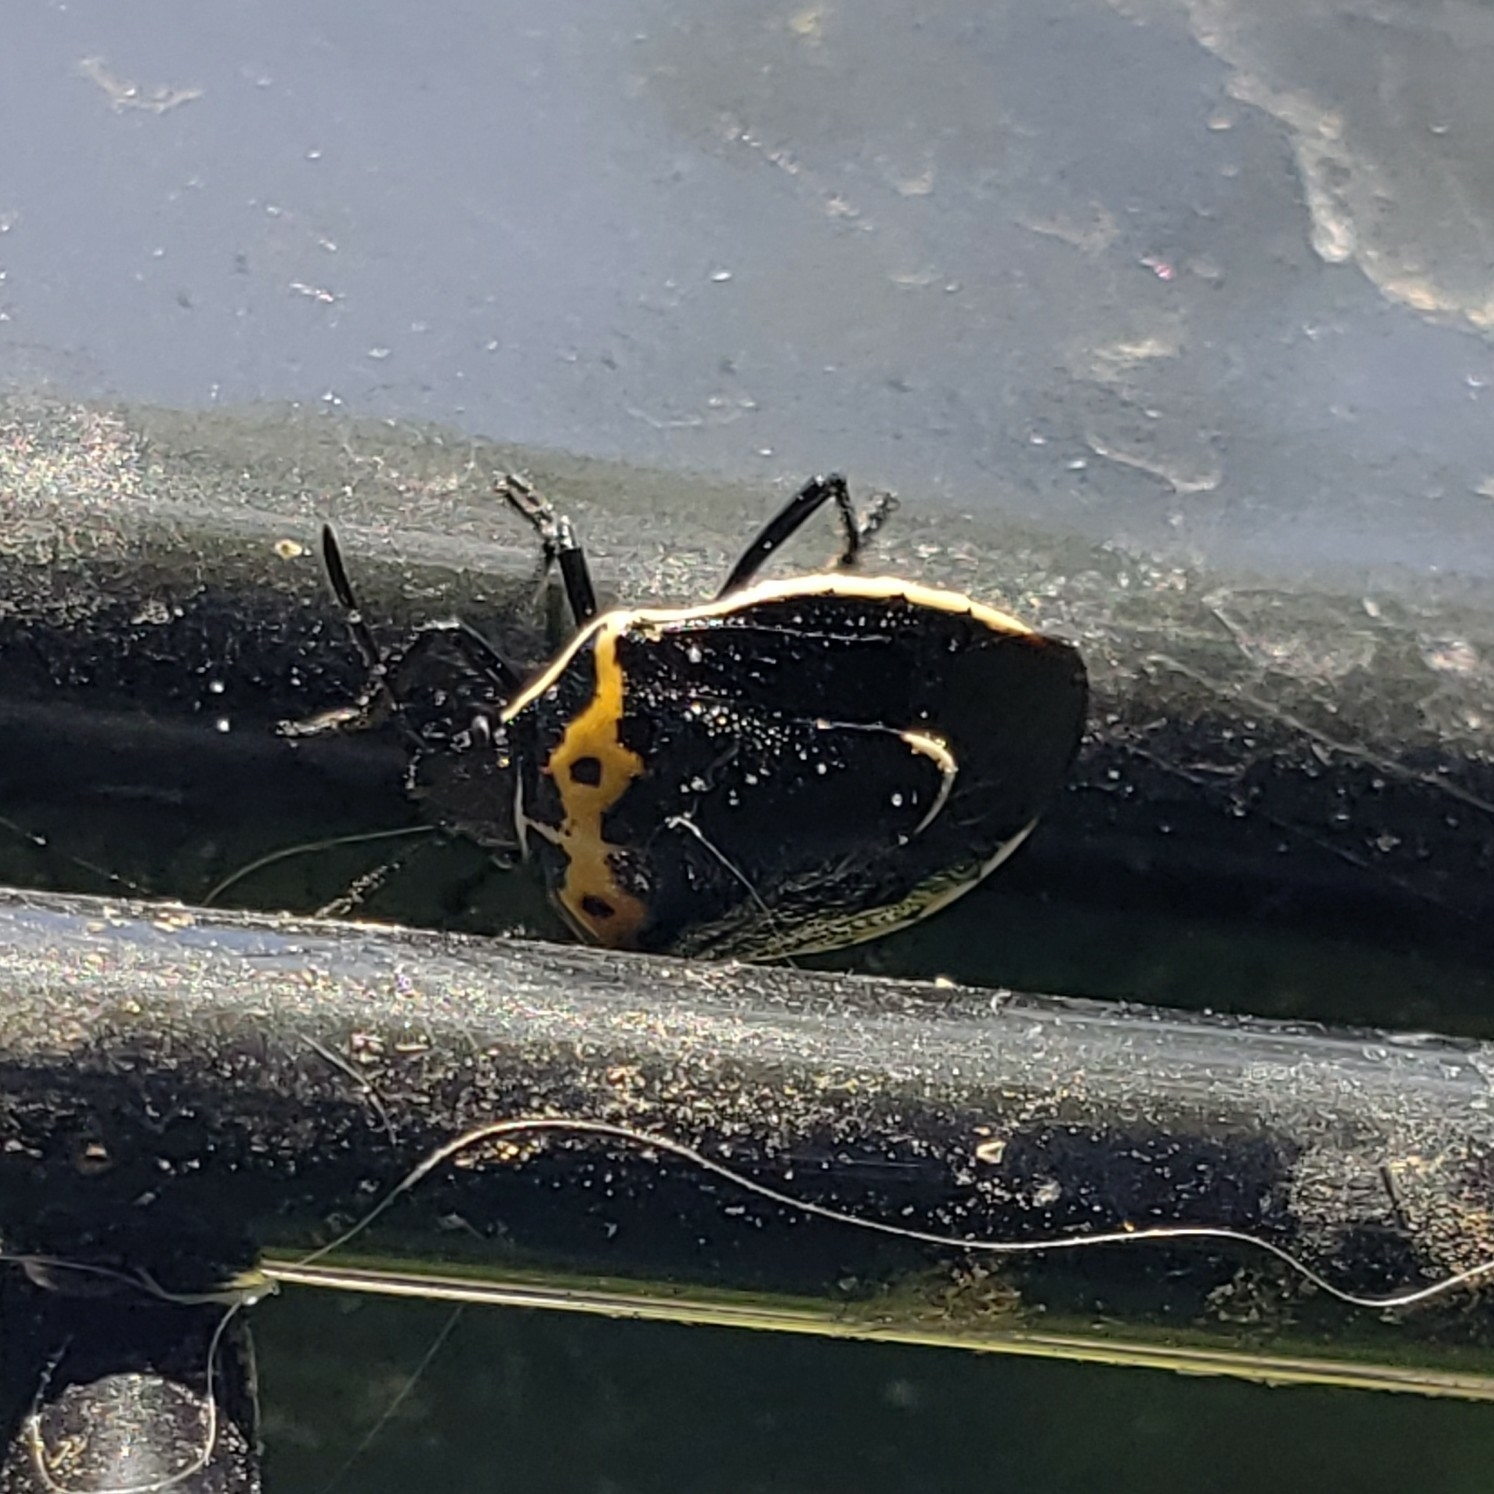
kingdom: Animalia
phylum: Arthropoda
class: Insecta
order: Hemiptera
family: Pentatomidae
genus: Cosmopepla
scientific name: Cosmopepla conspicillaris
